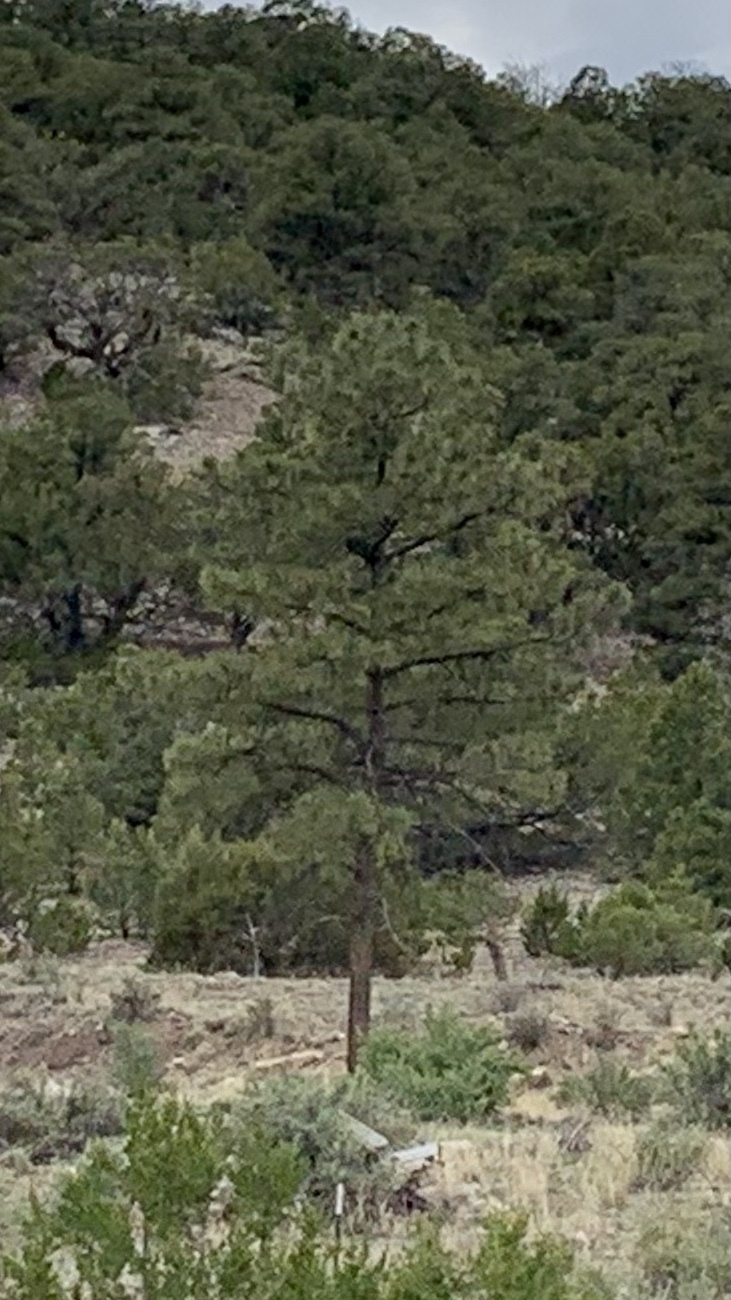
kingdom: Plantae
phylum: Tracheophyta
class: Pinopsida
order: Pinales
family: Pinaceae
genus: Pinus
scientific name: Pinus ponderosa
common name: Western yellow-pine
